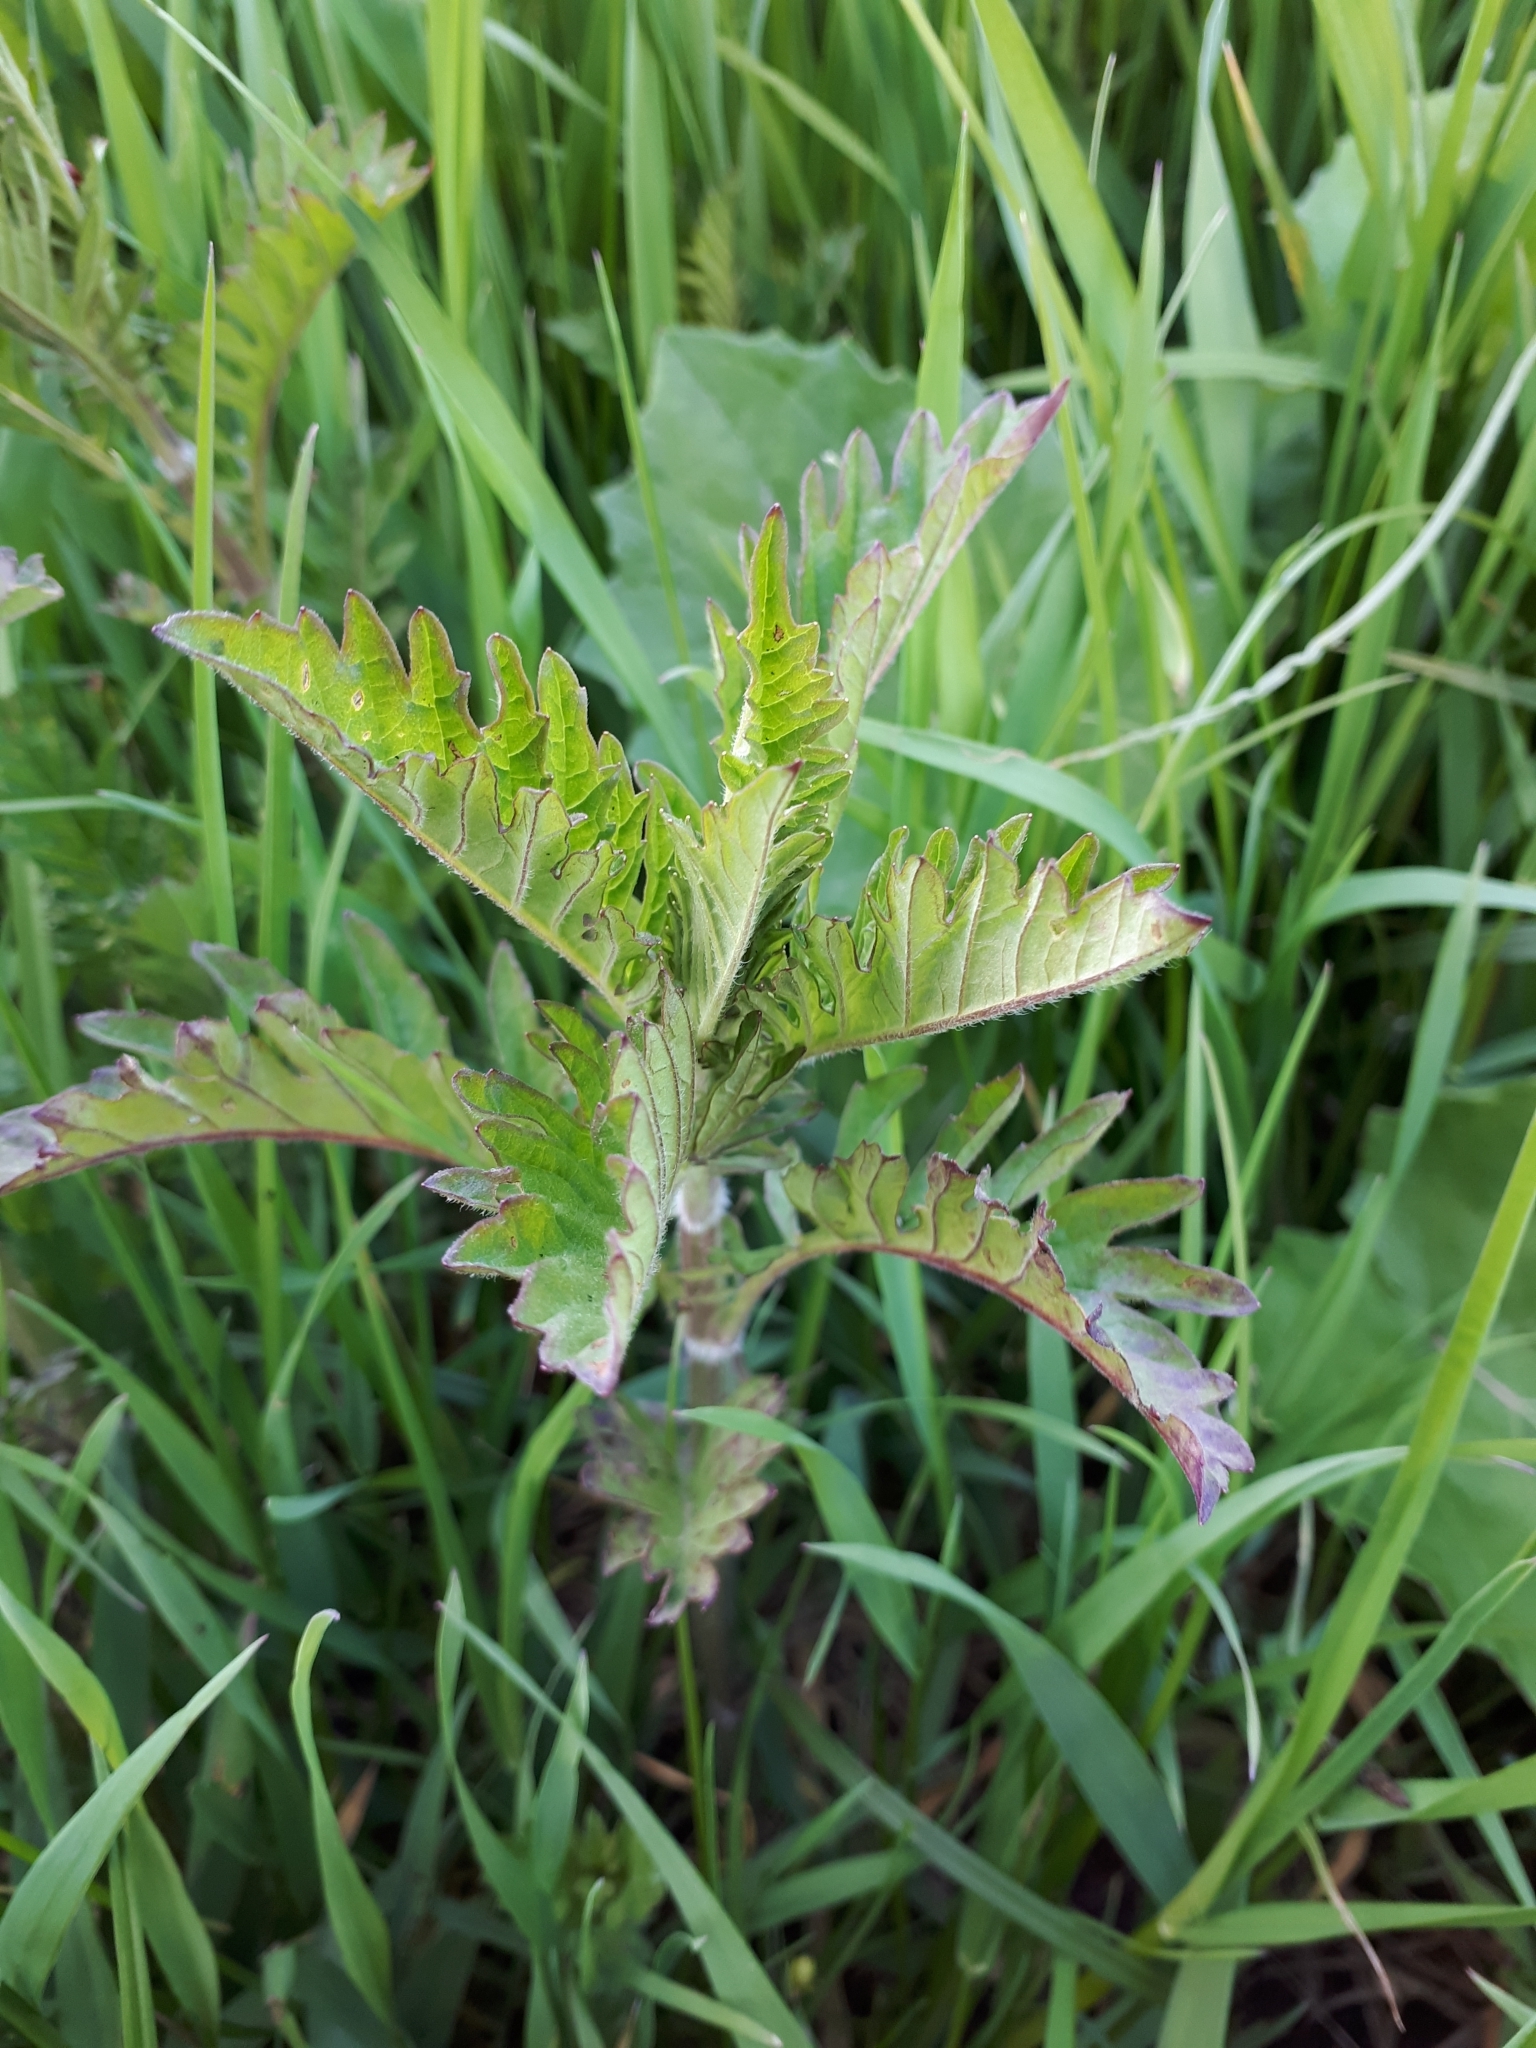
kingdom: Plantae
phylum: Tracheophyta
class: Magnoliopsida
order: Lamiales
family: Lamiaceae
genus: Lycopus
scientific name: Lycopus europaeus
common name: European bugleweed
